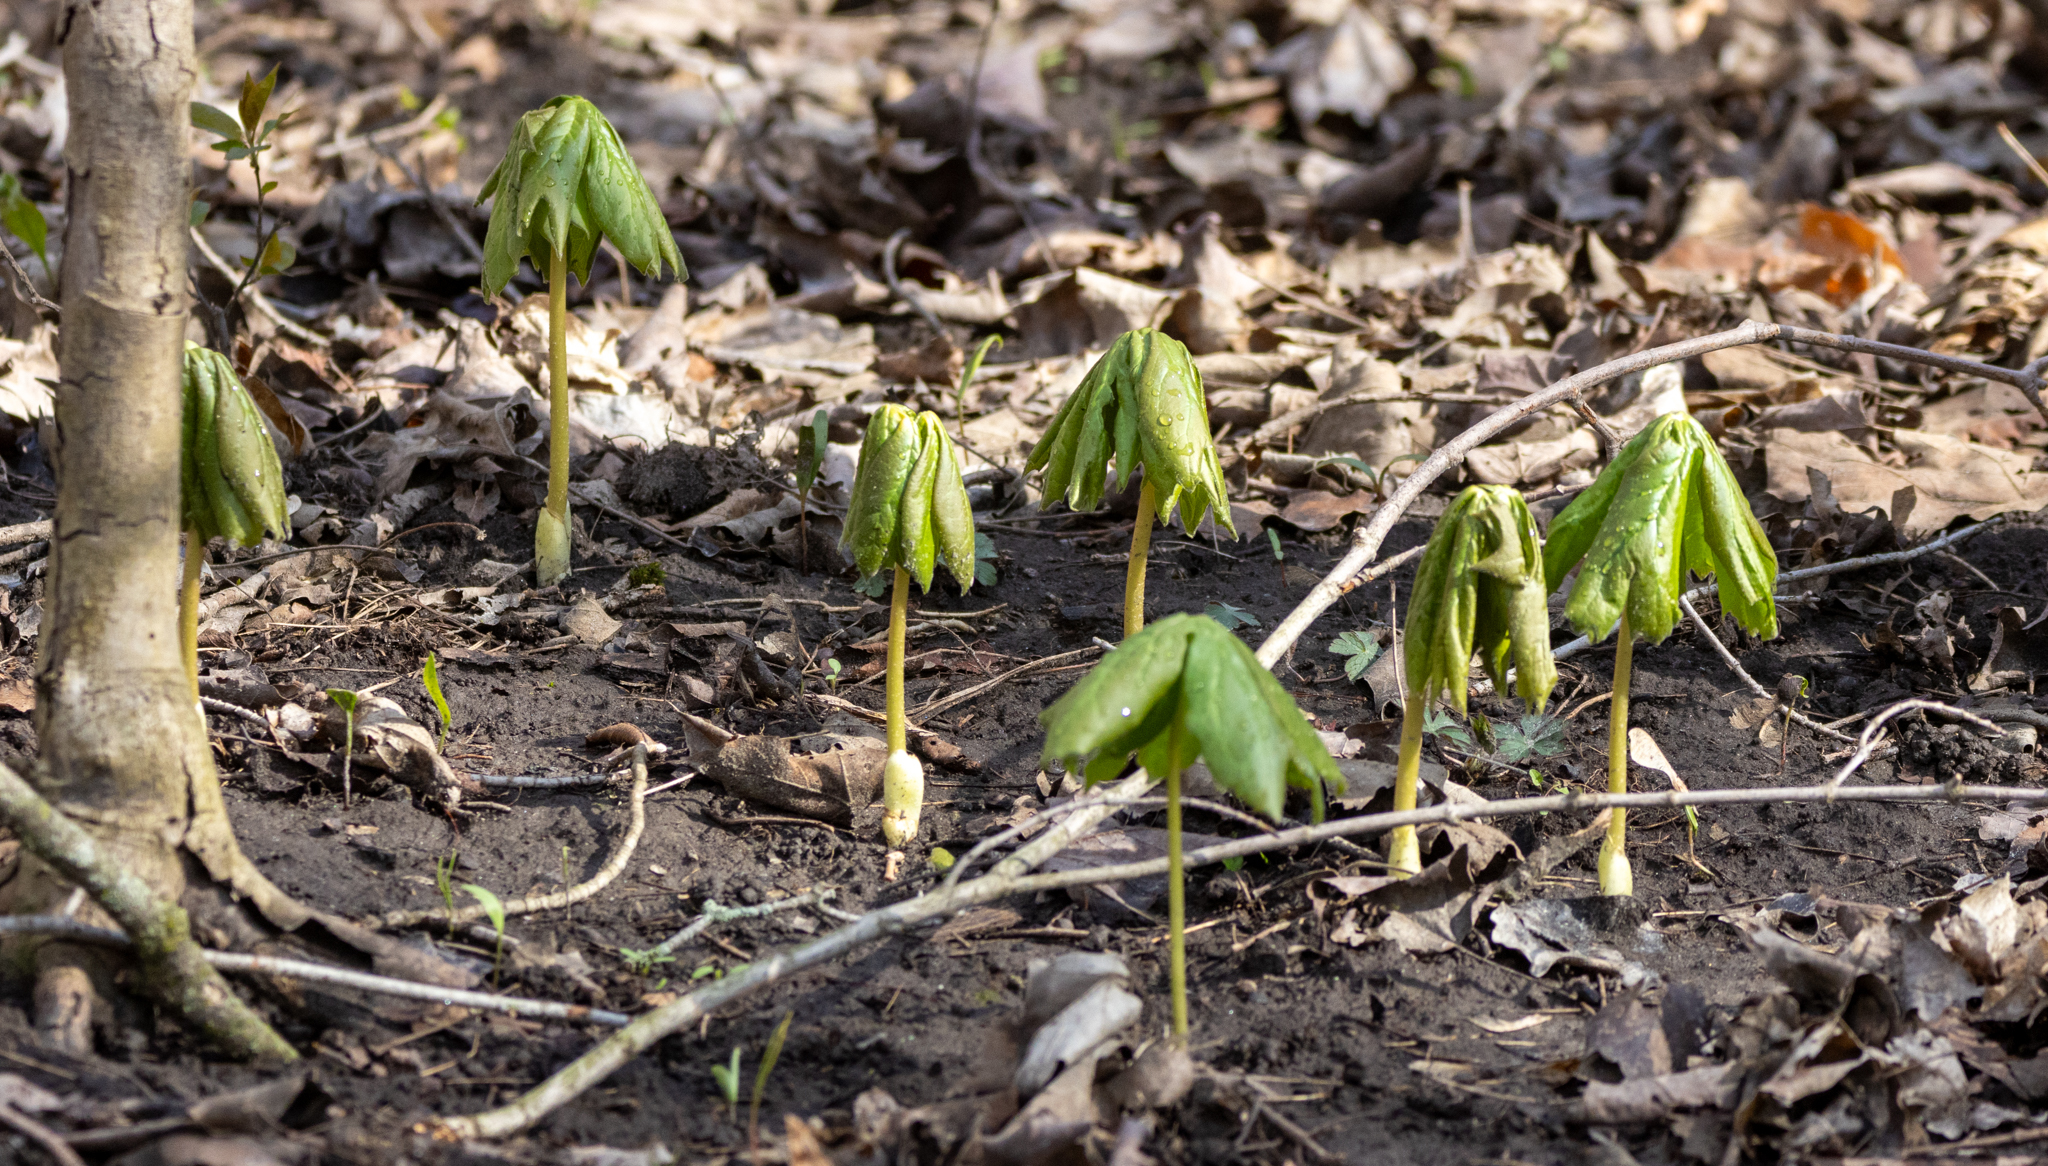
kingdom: Plantae
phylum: Tracheophyta
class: Magnoliopsida
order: Ranunculales
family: Berberidaceae
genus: Podophyllum
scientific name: Podophyllum peltatum
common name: Wild mandrake
